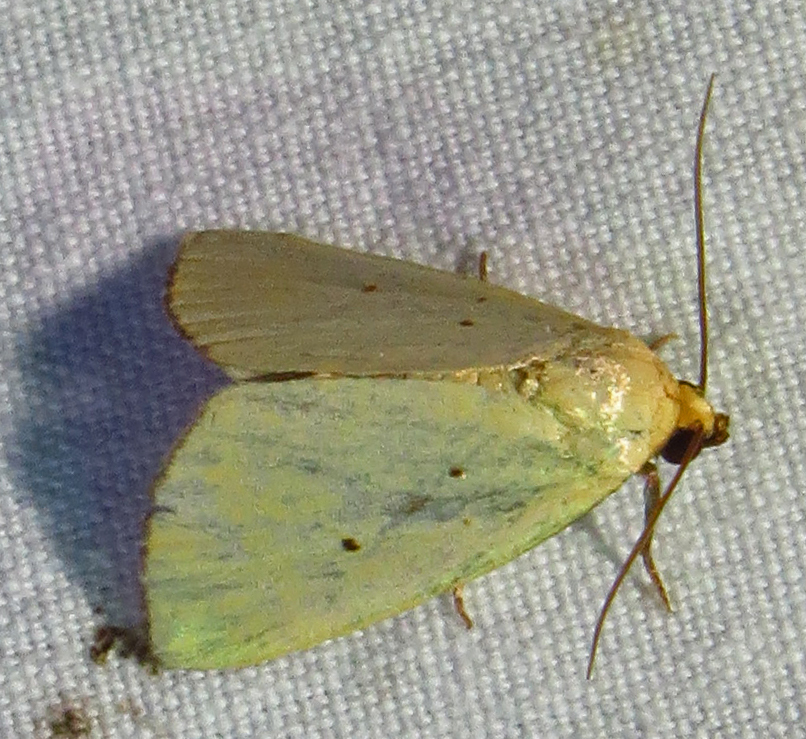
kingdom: Animalia
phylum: Arthropoda
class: Insecta
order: Lepidoptera
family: Noctuidae
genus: Marimatha
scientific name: Marimatha nigrofimbria
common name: Black-bordered lemon moth
